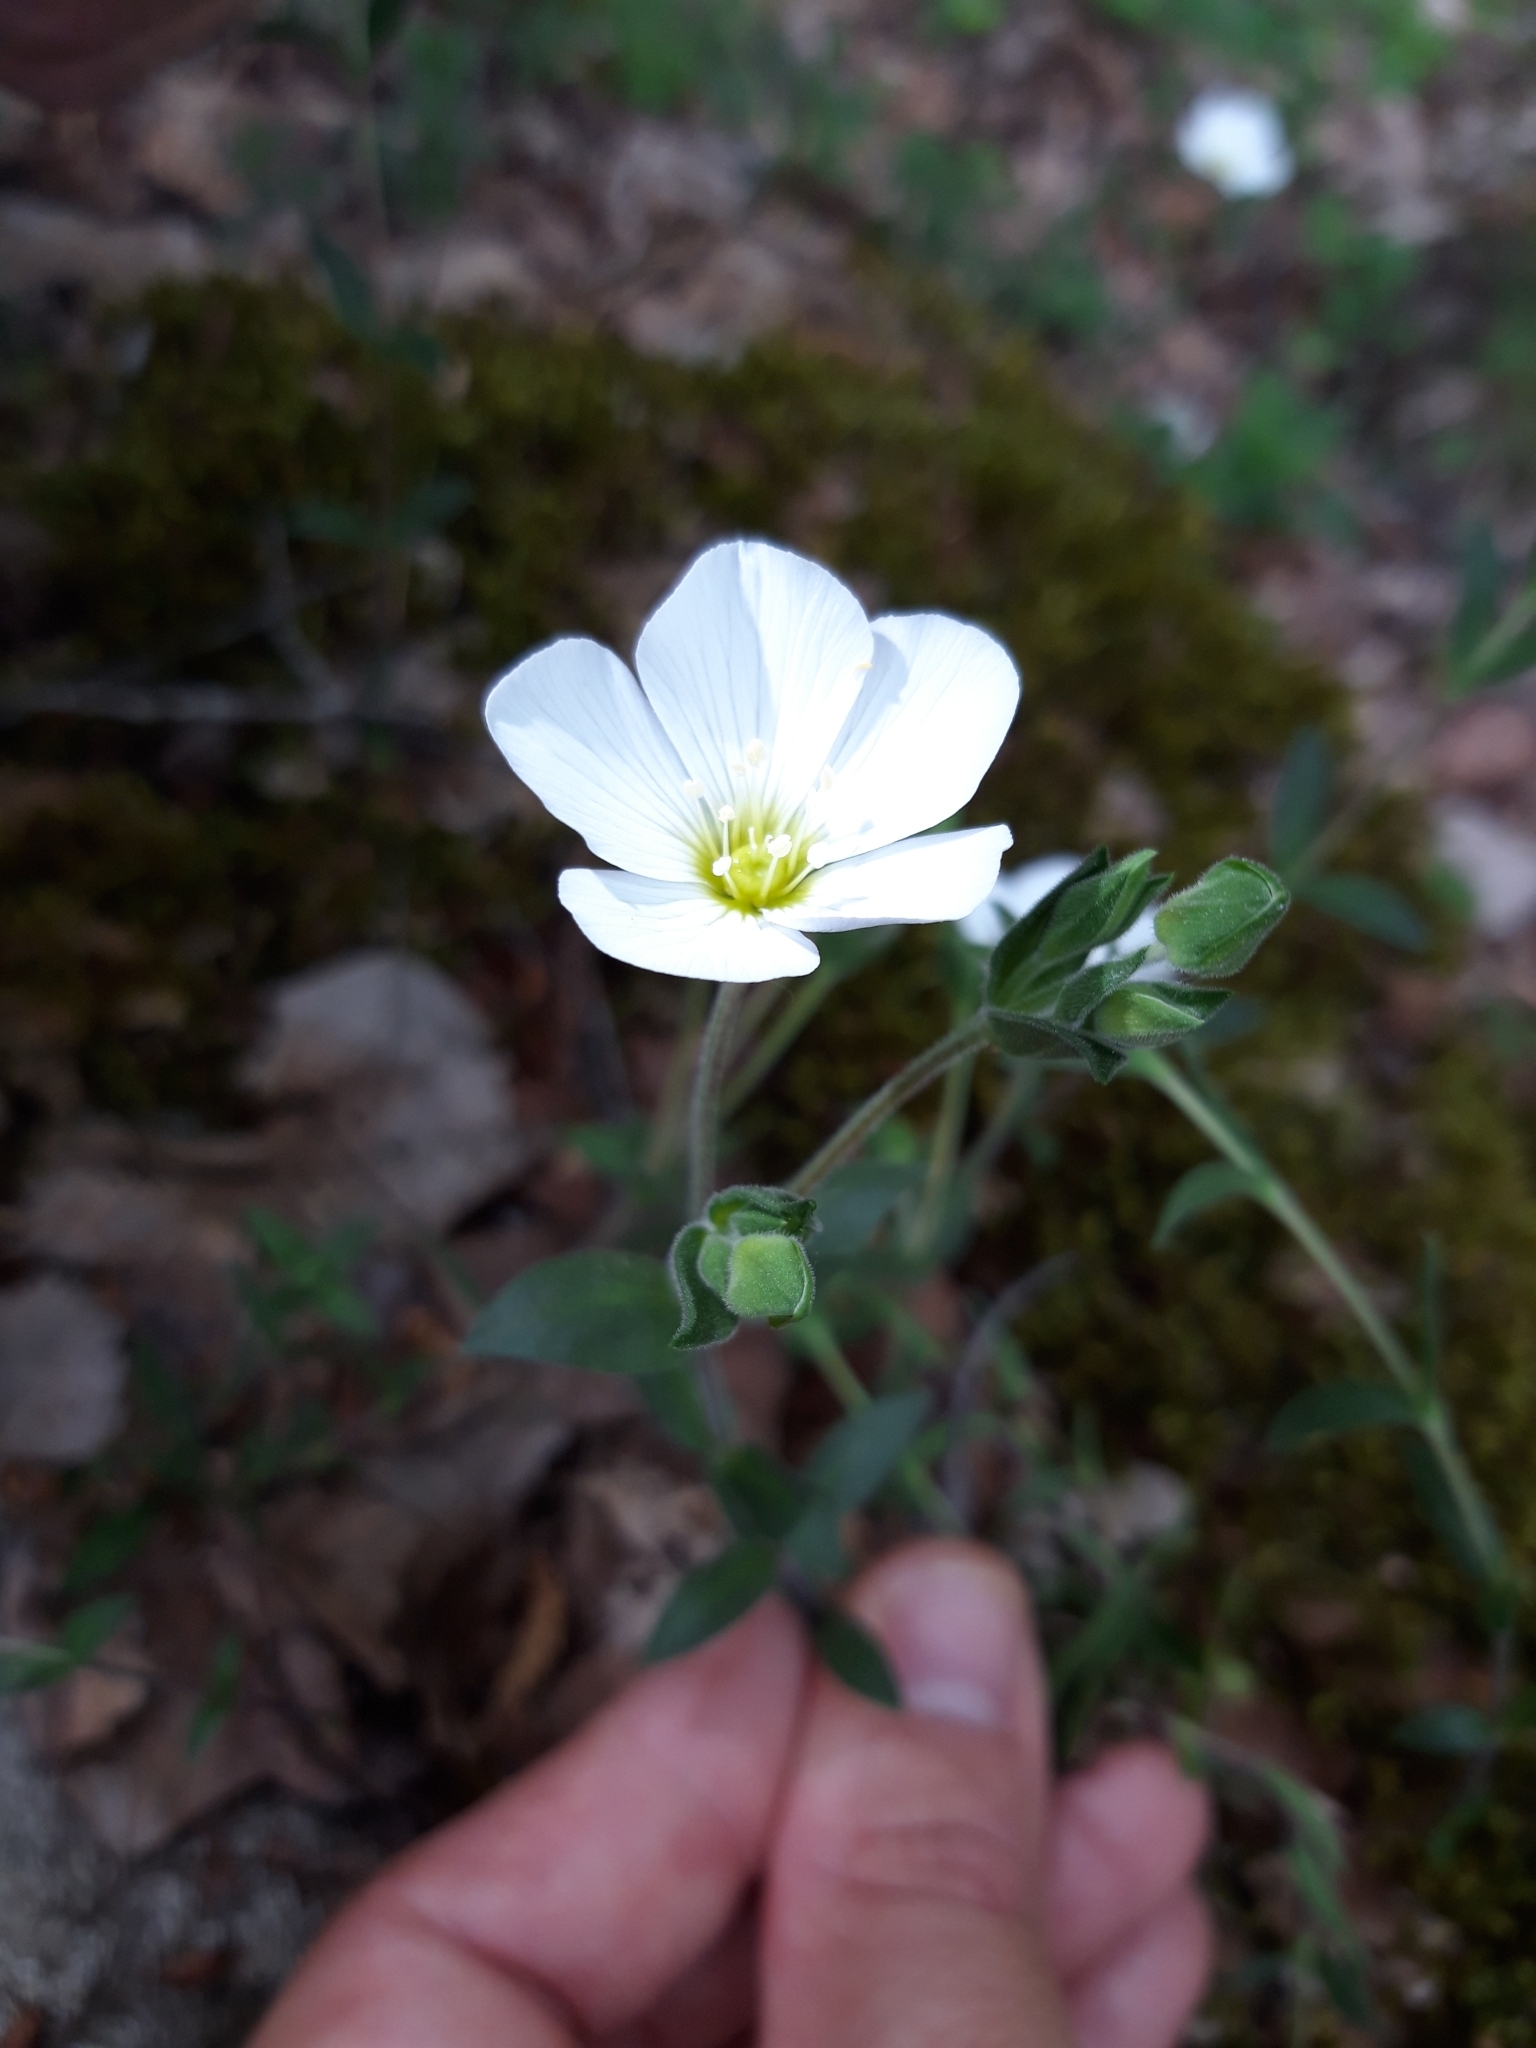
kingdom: Plantae
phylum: Tracheophyta
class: Magnoliopsida
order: Caryophyllales
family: Caryophyllaceae
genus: Arenaria
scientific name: Arenaria montana
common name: Mountain sandwort
